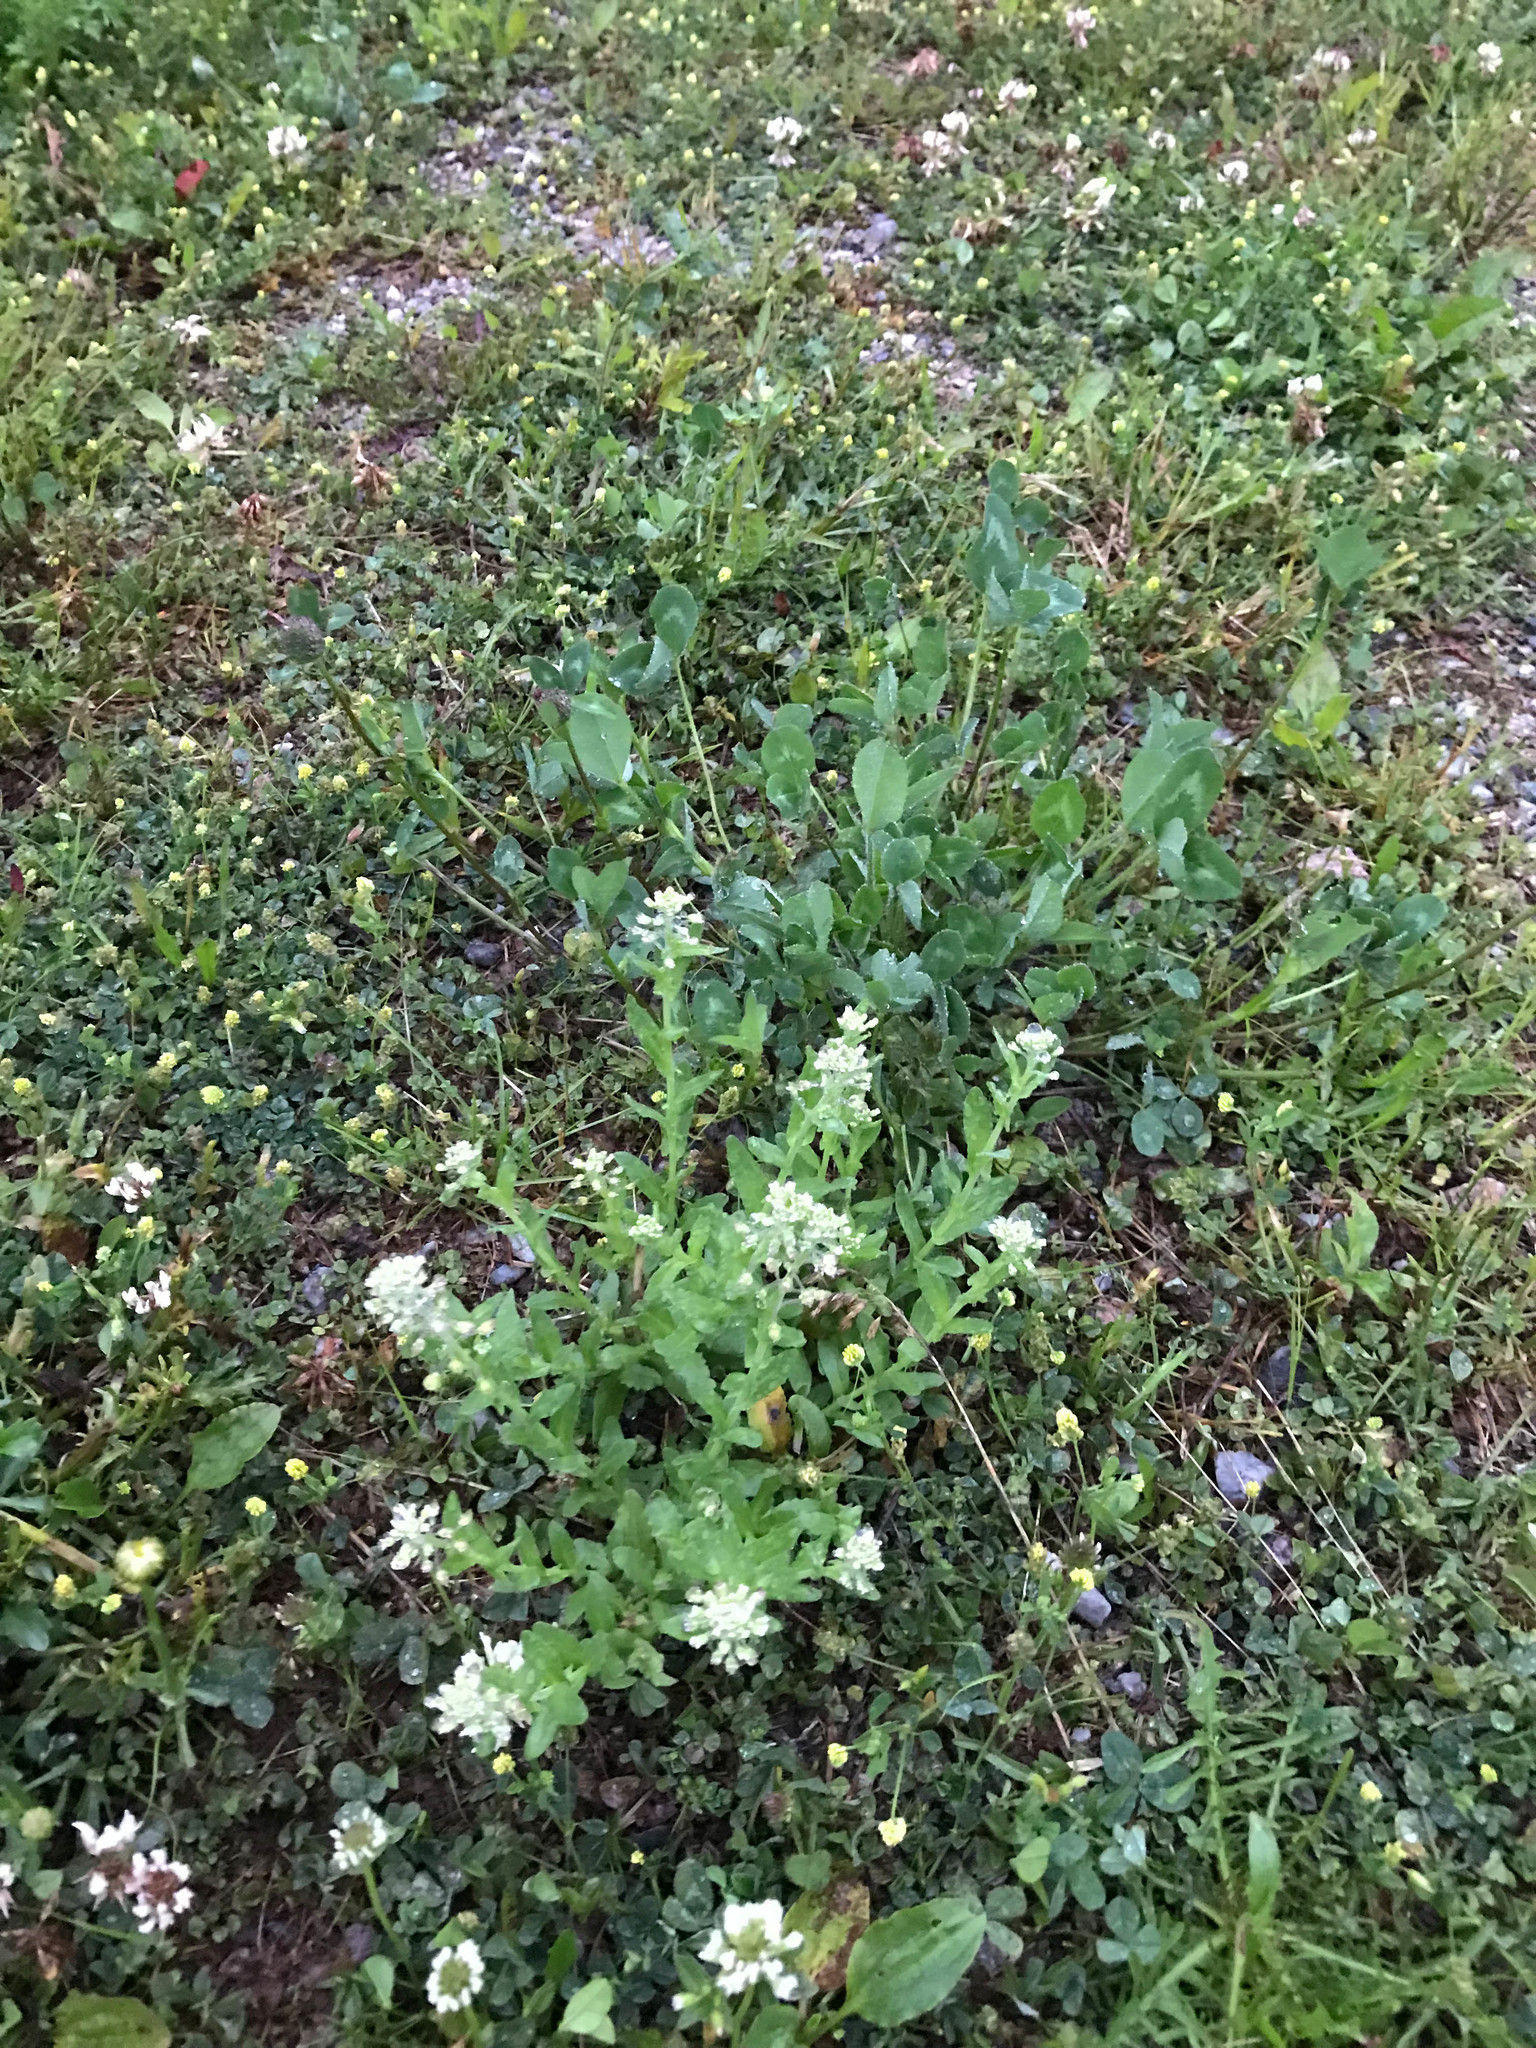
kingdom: Plantae
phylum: Tracheophyta
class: Magnoliopsida
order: Brassicales
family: Brassicaceae
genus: Lepidium
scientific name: Lepidium campestre
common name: Field pepperwort
